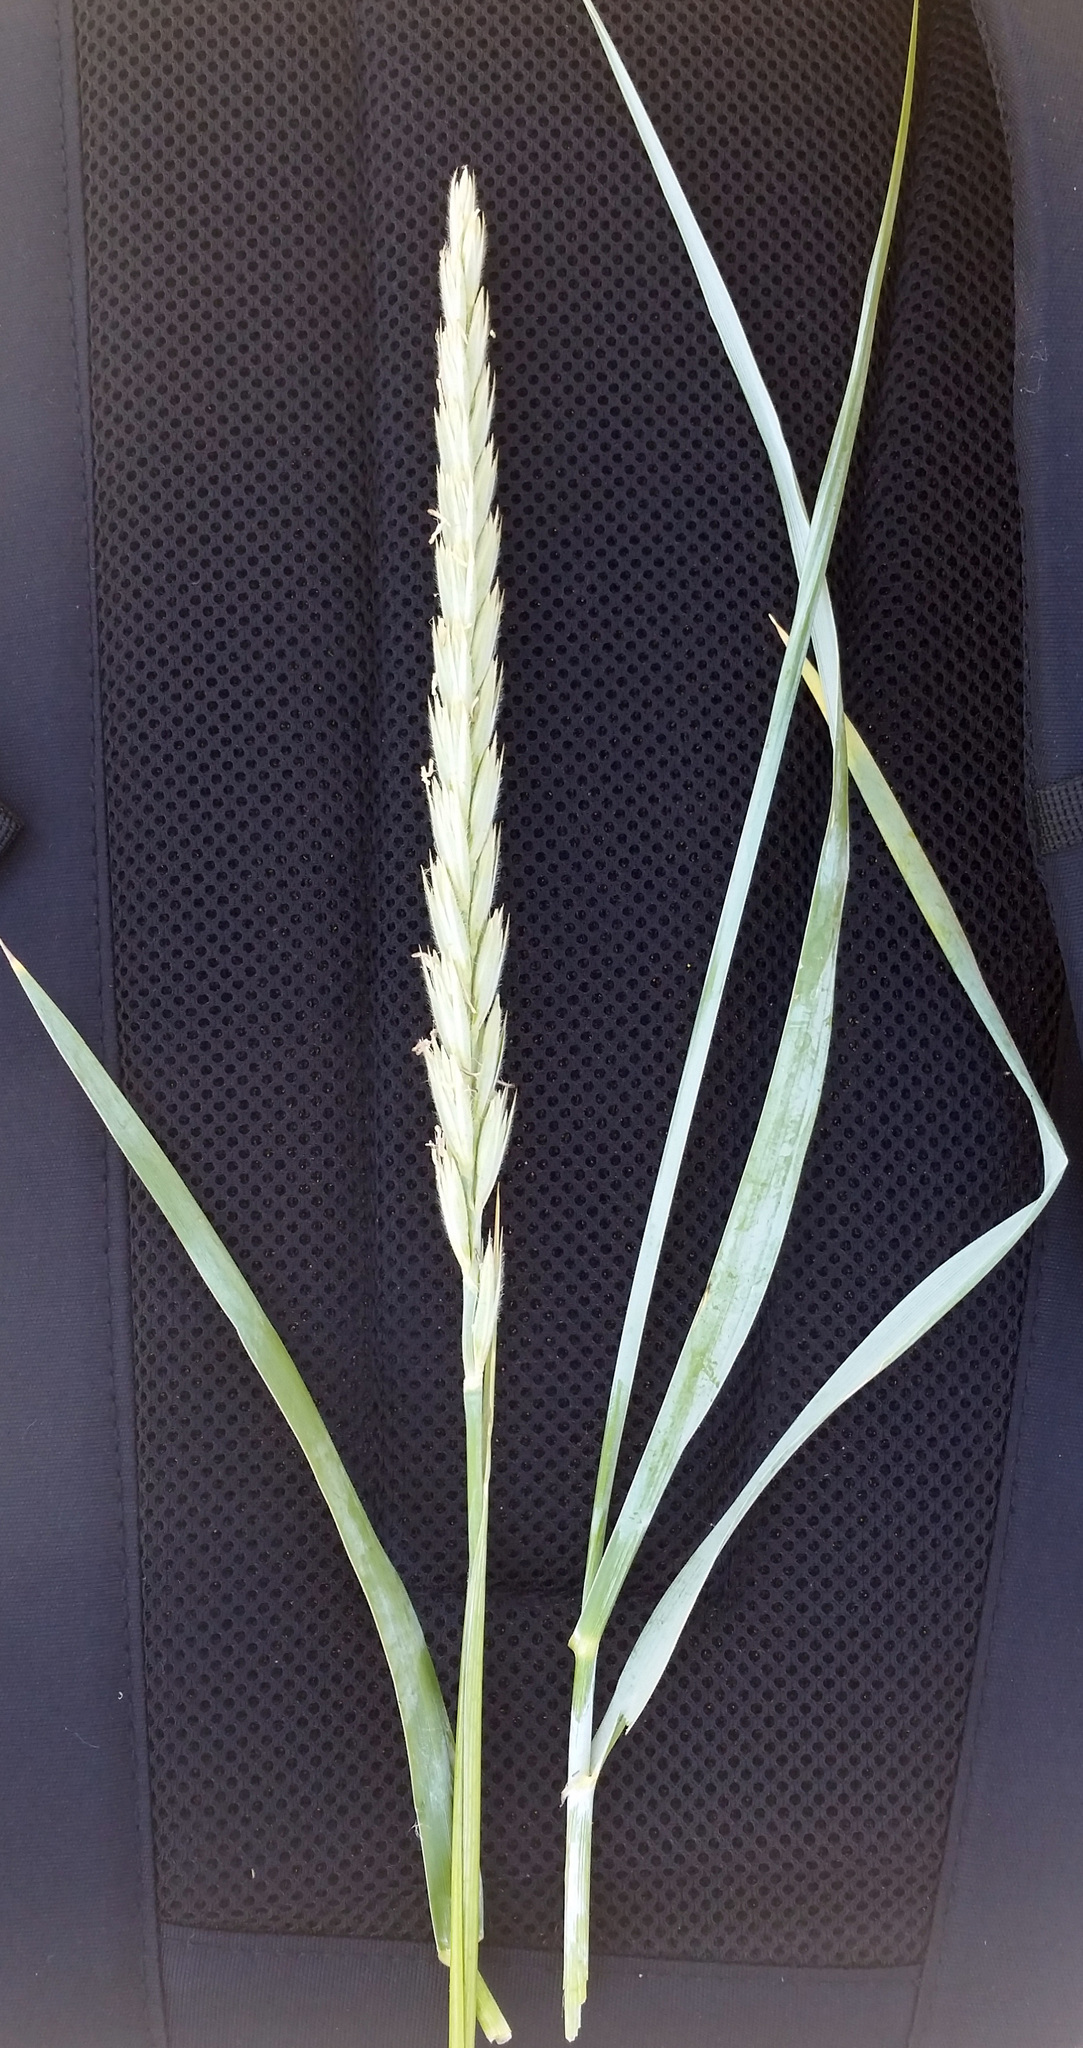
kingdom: Plantae
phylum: Tracheophyta
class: Liliopsida
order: Poales
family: Poaceae
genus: Leymus
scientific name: Leymus arenarius
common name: Lyme-grass
